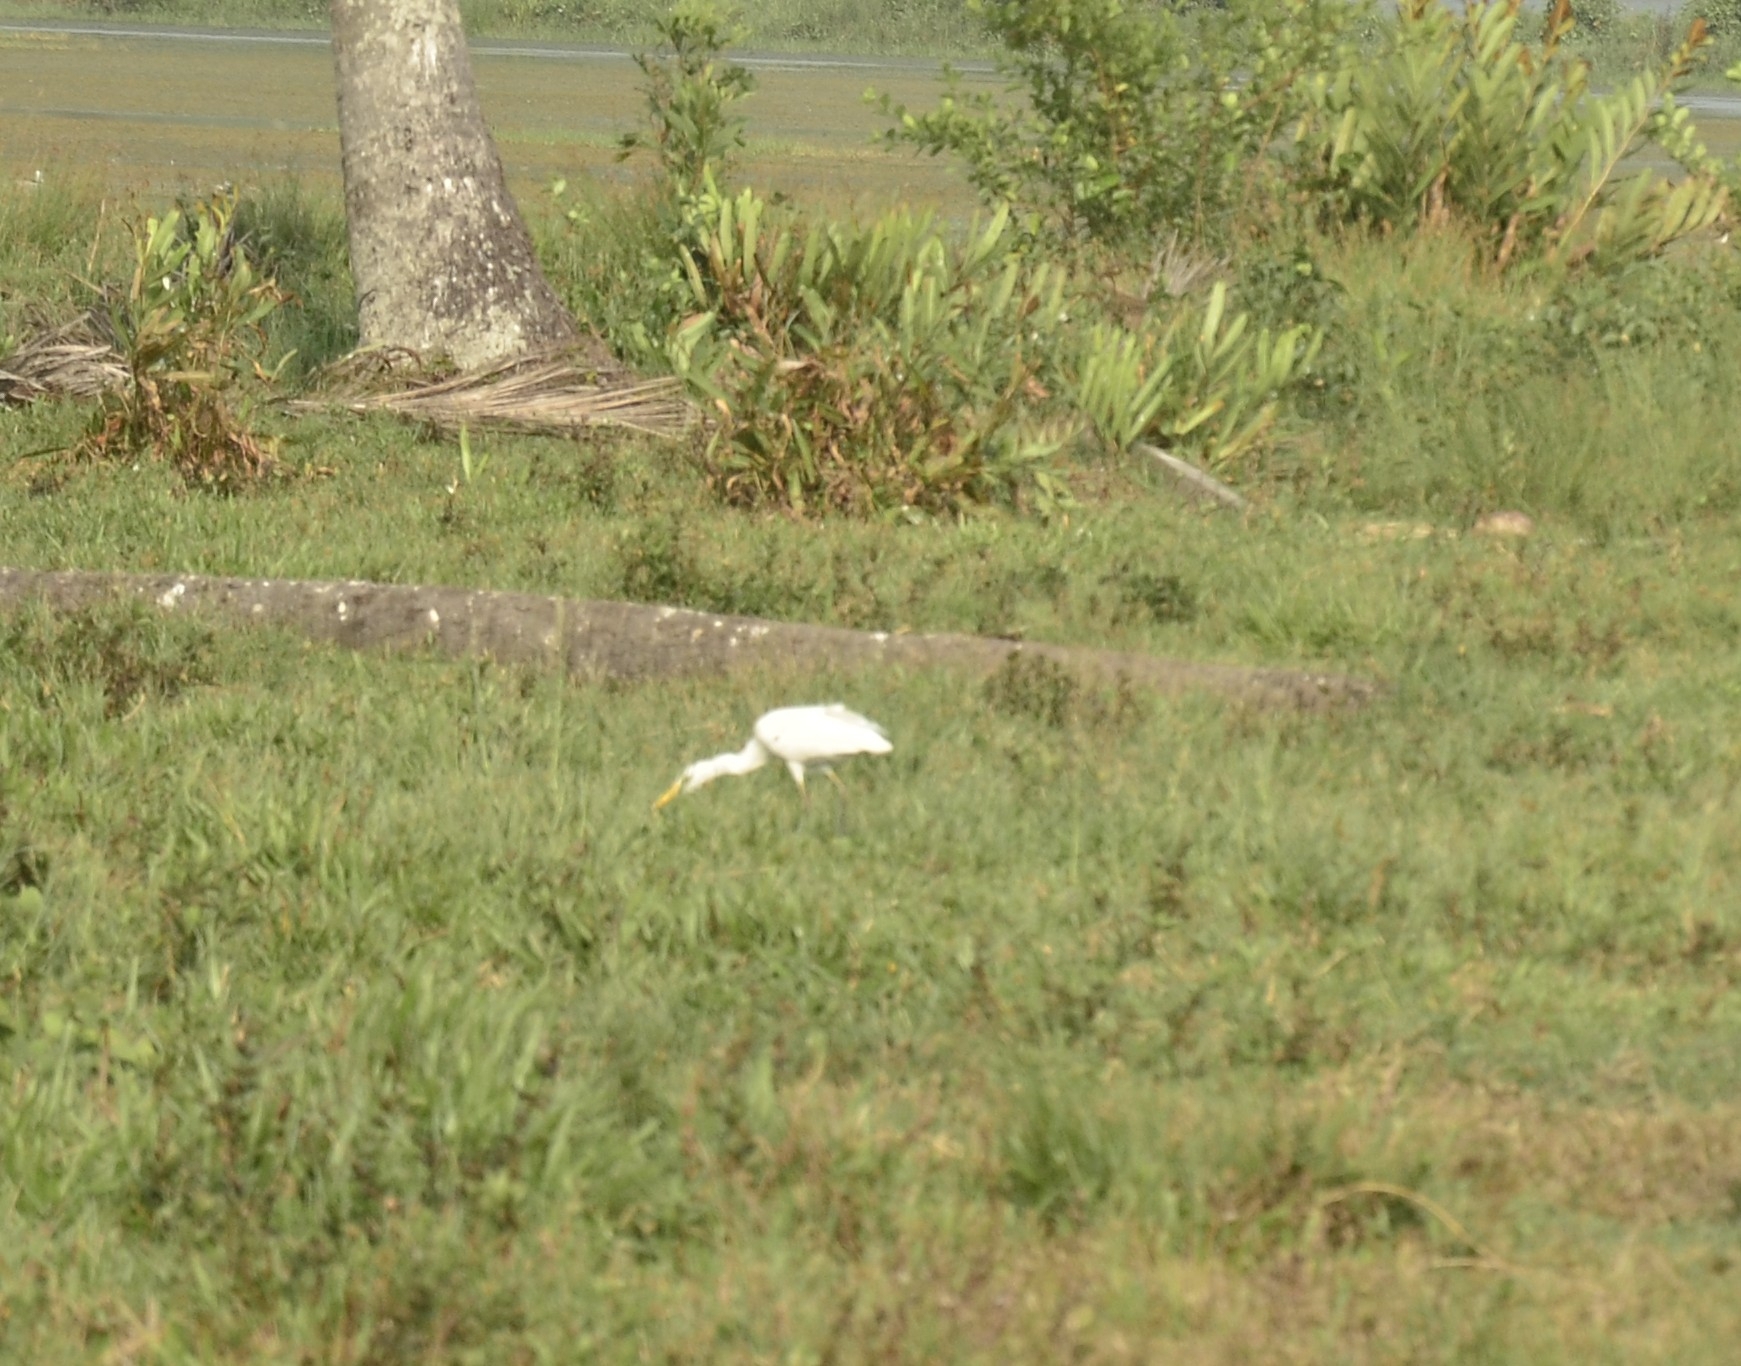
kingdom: Animalia
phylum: Chordata
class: Aves
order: Pelecaniformes
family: Ardeidae
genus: Bubulcus
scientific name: Bubulcus coromandus
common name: Eastern cattle egret
